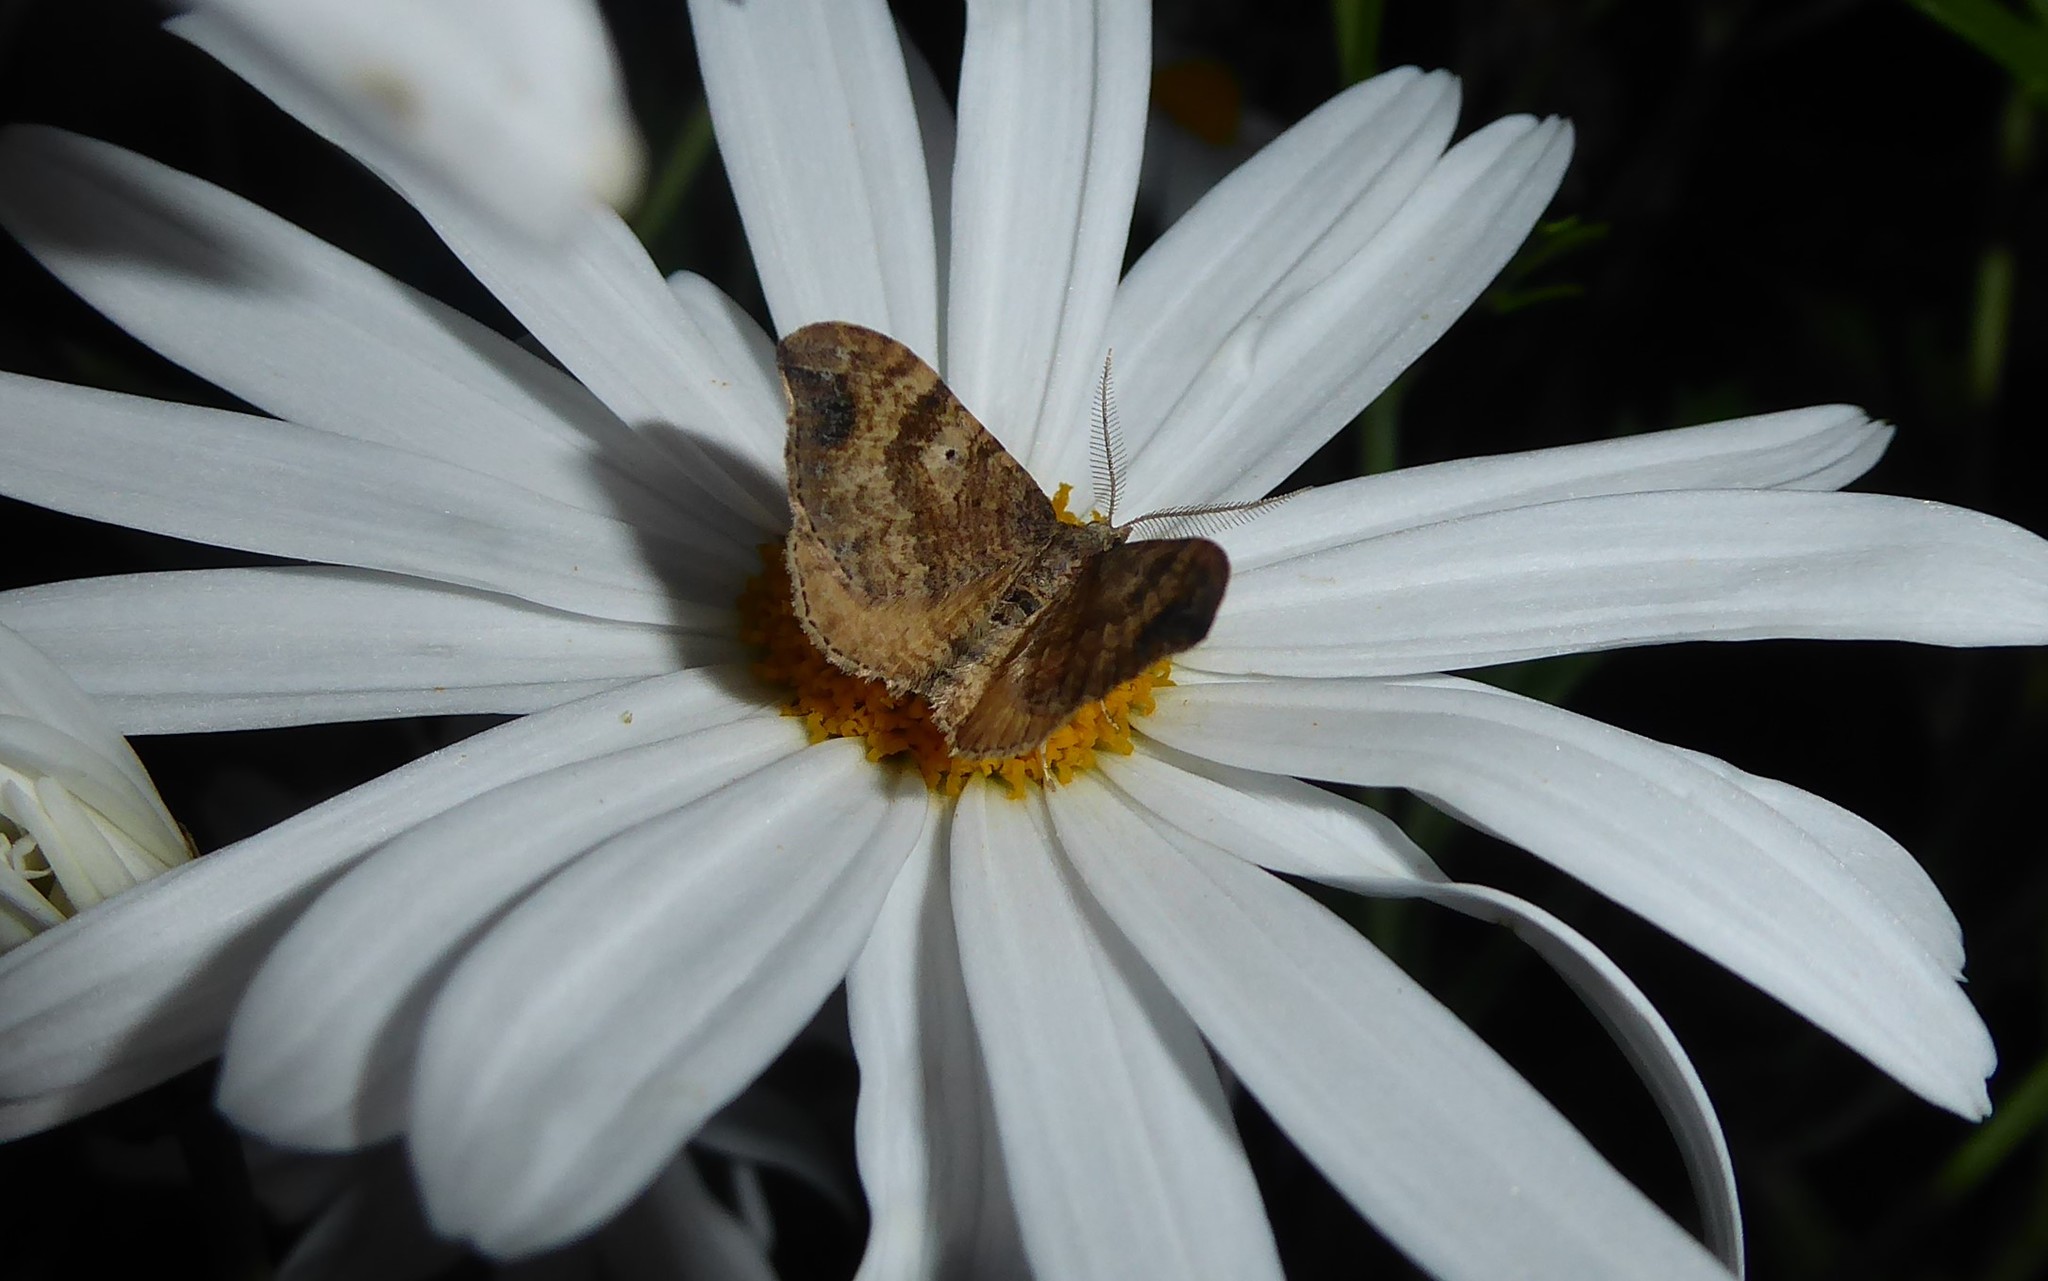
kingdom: Animalia
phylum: Arthropoda
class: Insecta
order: Lepidoptera
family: Geometridae
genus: Homodotis
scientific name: Homodotis megaspilata
